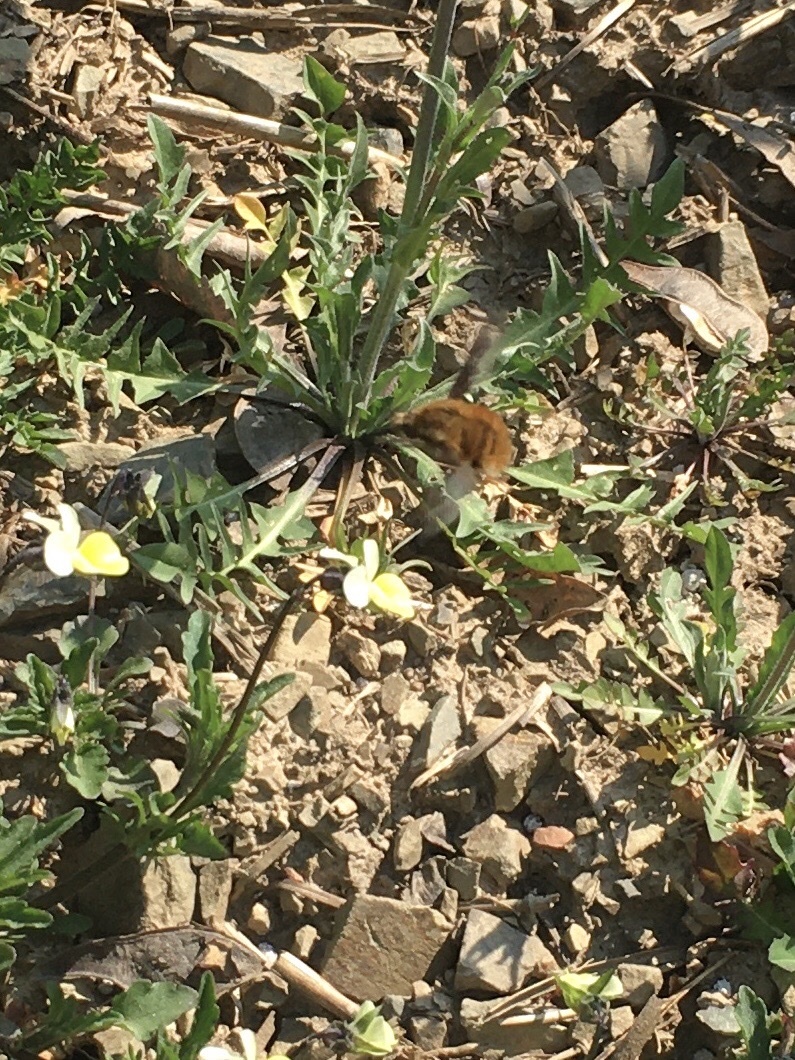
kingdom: Animalia
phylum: Arthropoda
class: Insecta
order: Diptera
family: Bombyliidae
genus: Bombylius
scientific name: Bombylius major
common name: Bee fly
